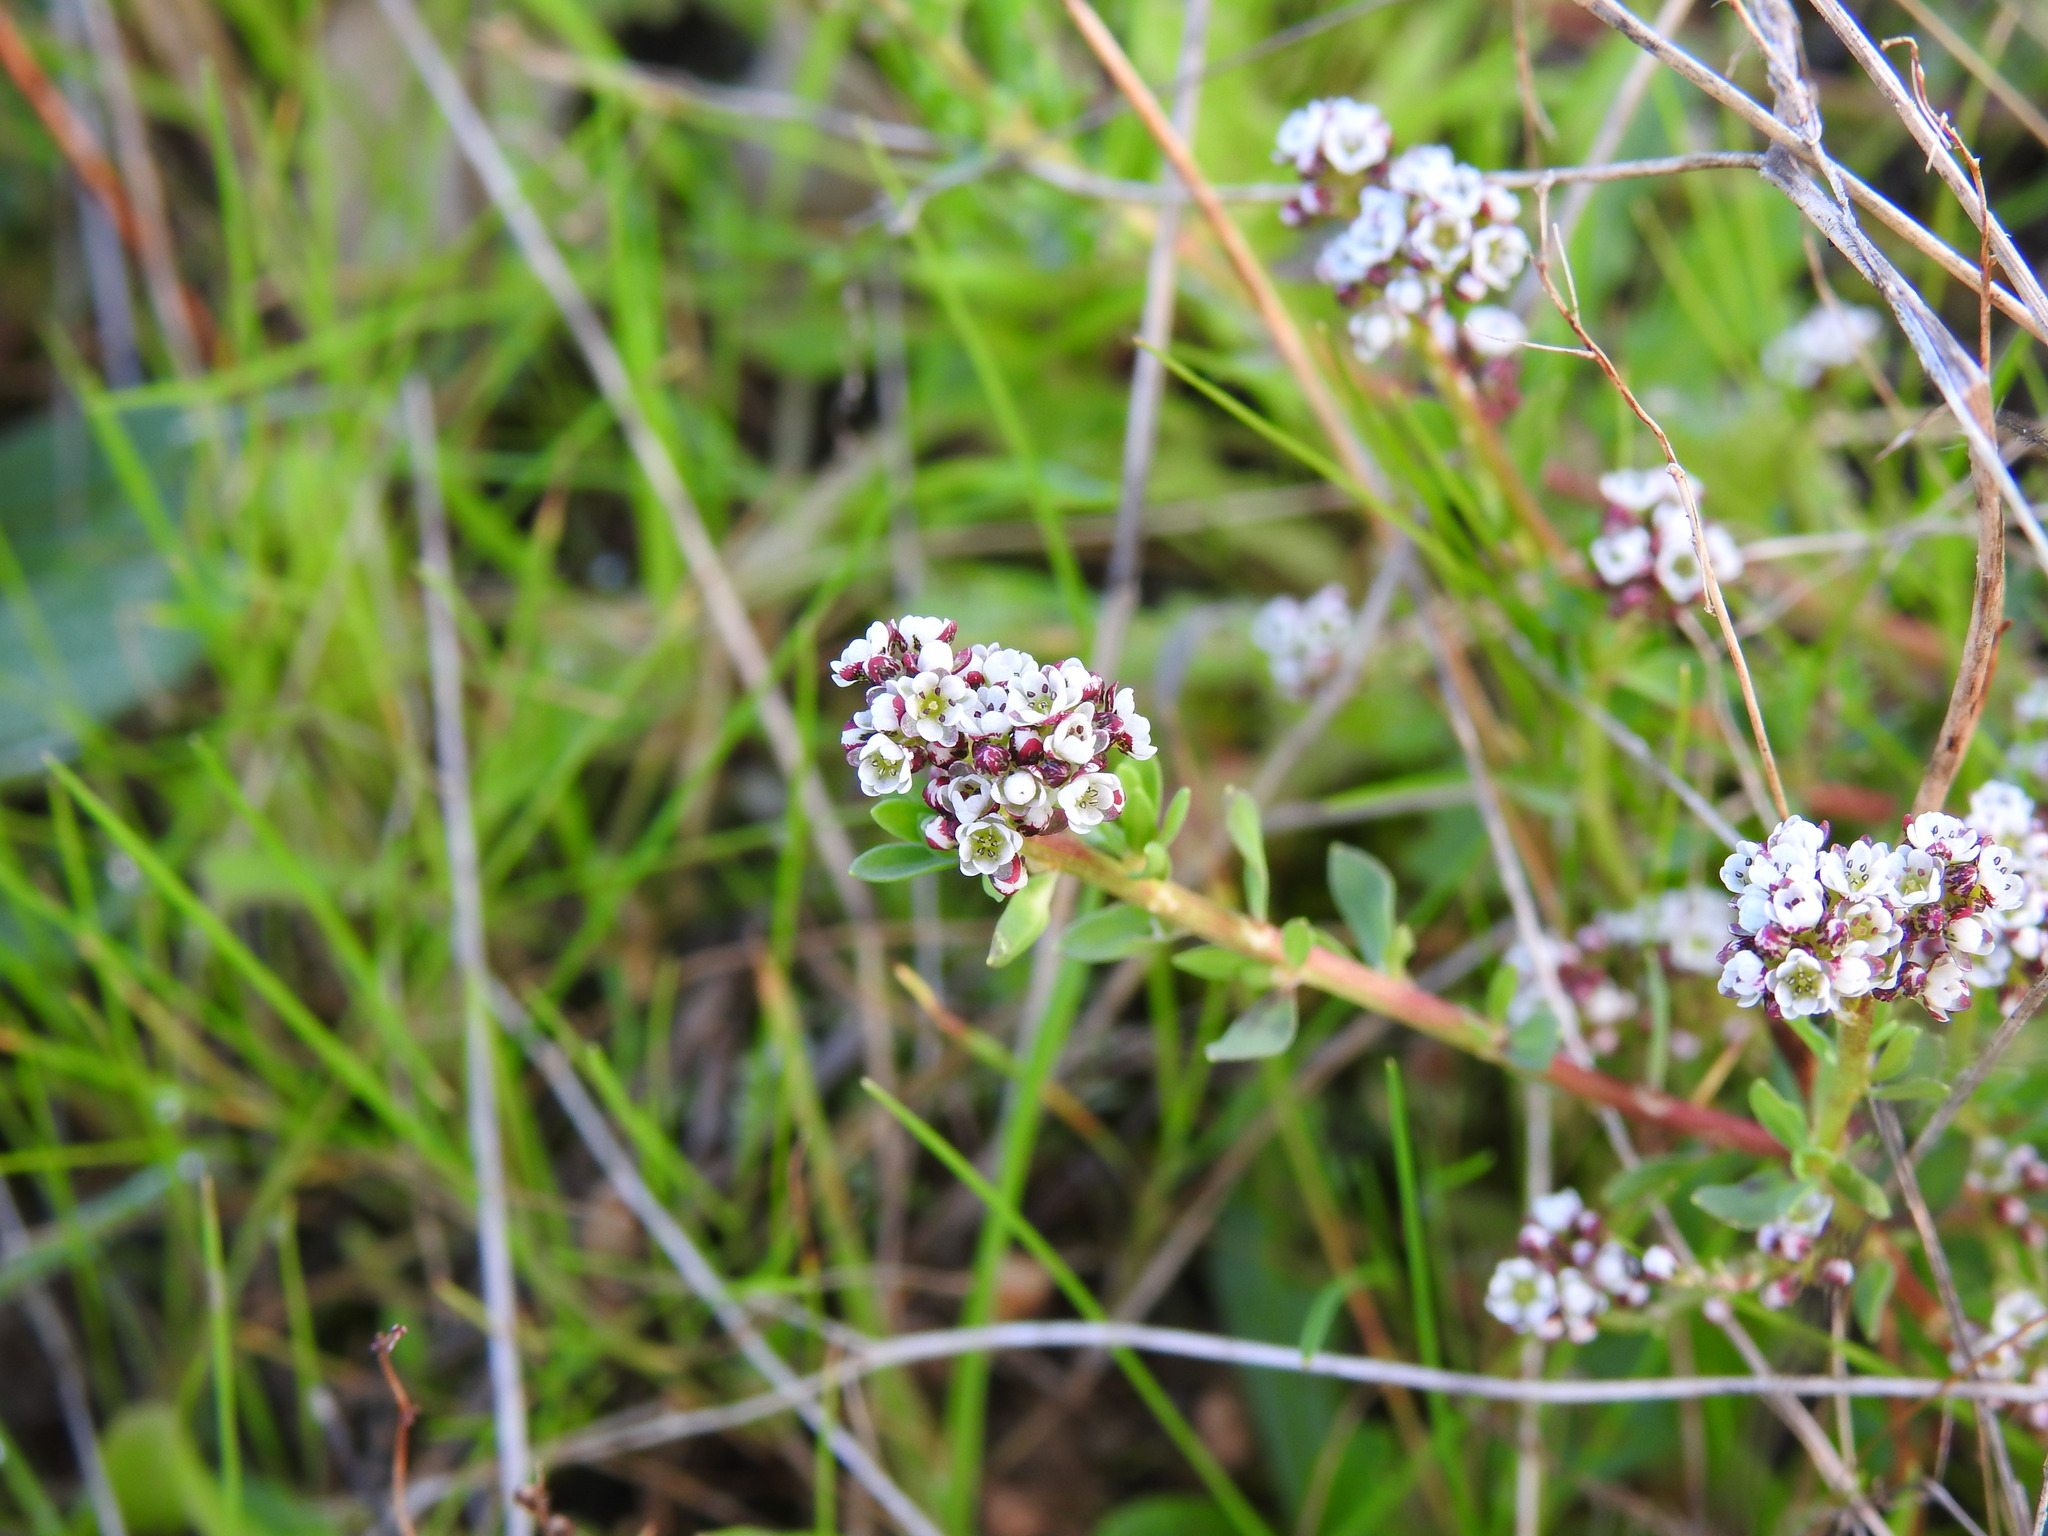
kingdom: Plantae
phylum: Tracheophyta
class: Magnoliopsida
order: Caryophyllales
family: Caryophyllaceae
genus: Corrigiola
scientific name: Corrigiola litoralis
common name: Strapwort
